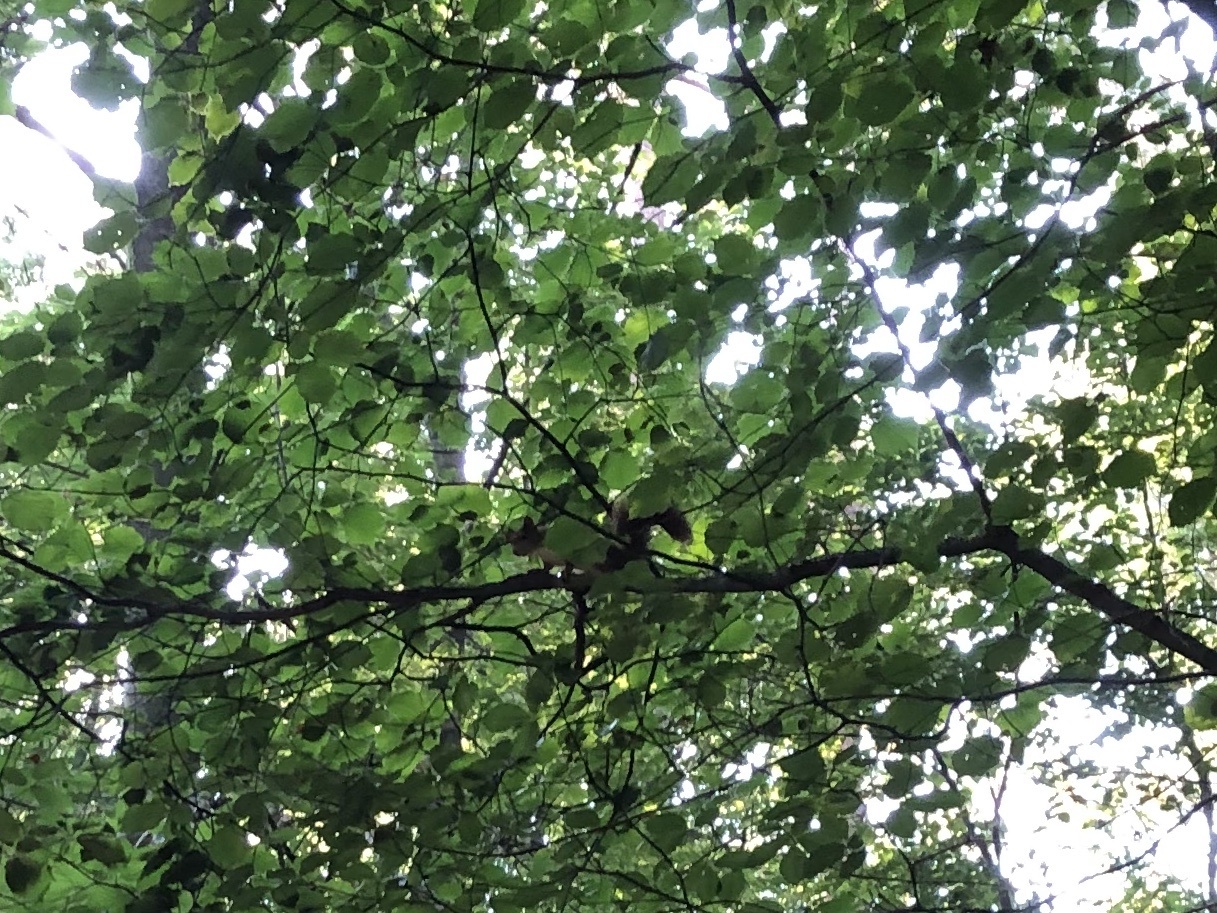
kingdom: Animalia
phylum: Chordata
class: Mammalia
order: Rodentia
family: Sciuridae
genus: Sciurus
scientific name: Sciurus vulgaris
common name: Eurasian red squirrel
